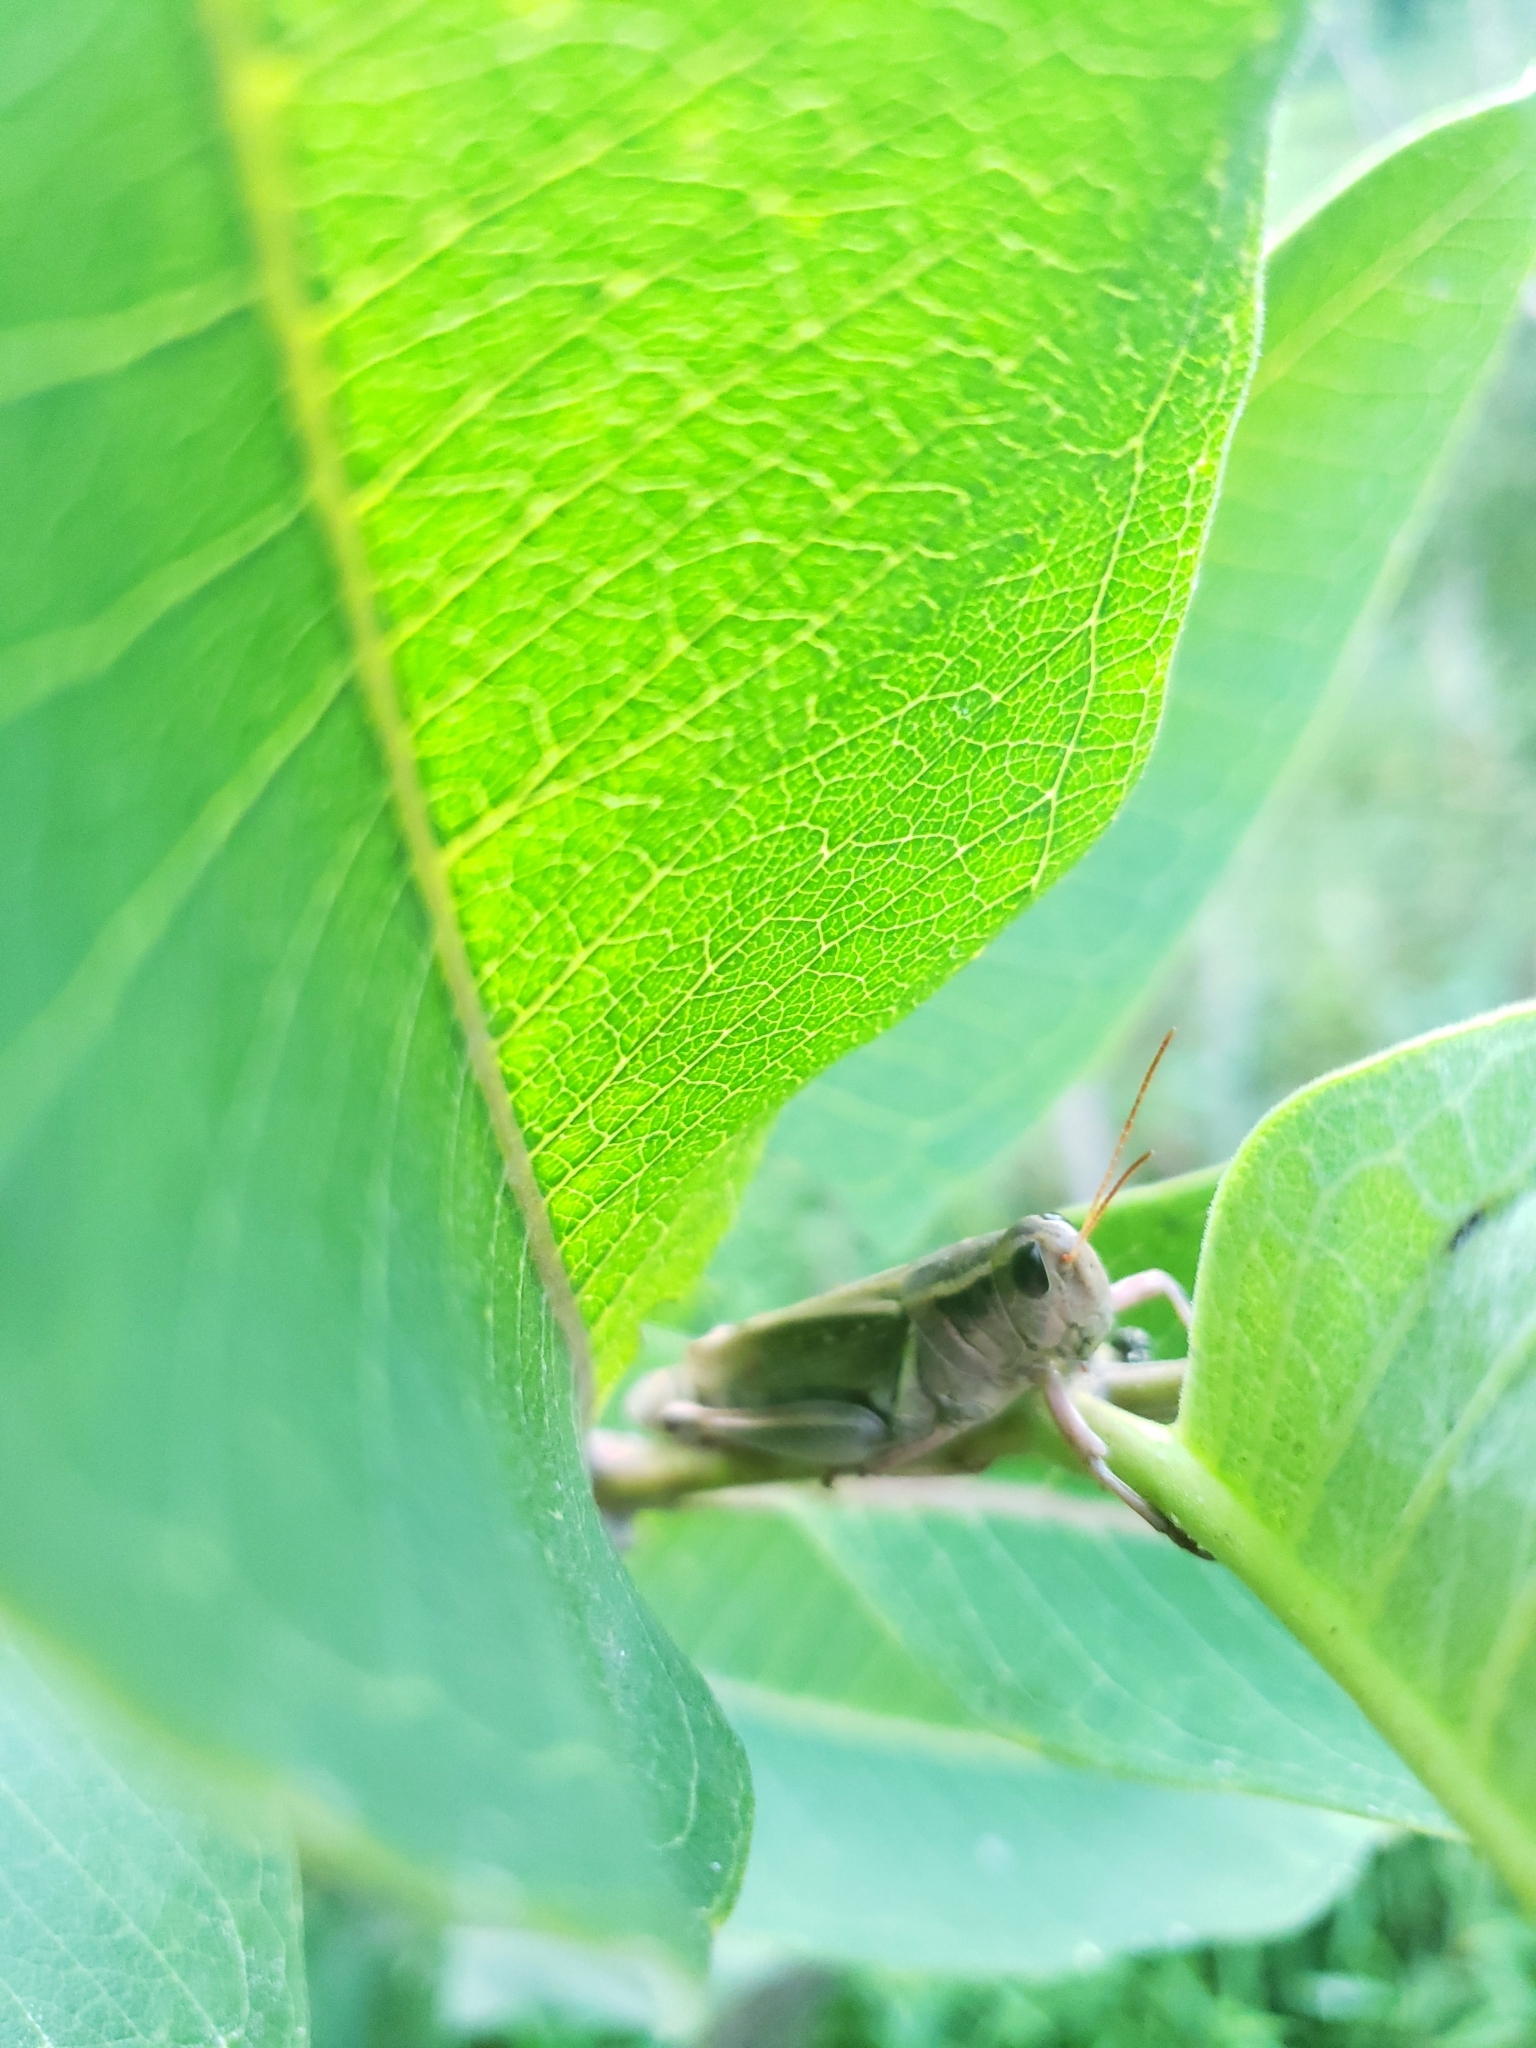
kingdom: Animalia
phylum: Arthropoda
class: Insecta
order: Orthoptera
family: Acrididae
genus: Melanoplus
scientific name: Melanoplus bivittatus
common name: Two-striped grasshopper
